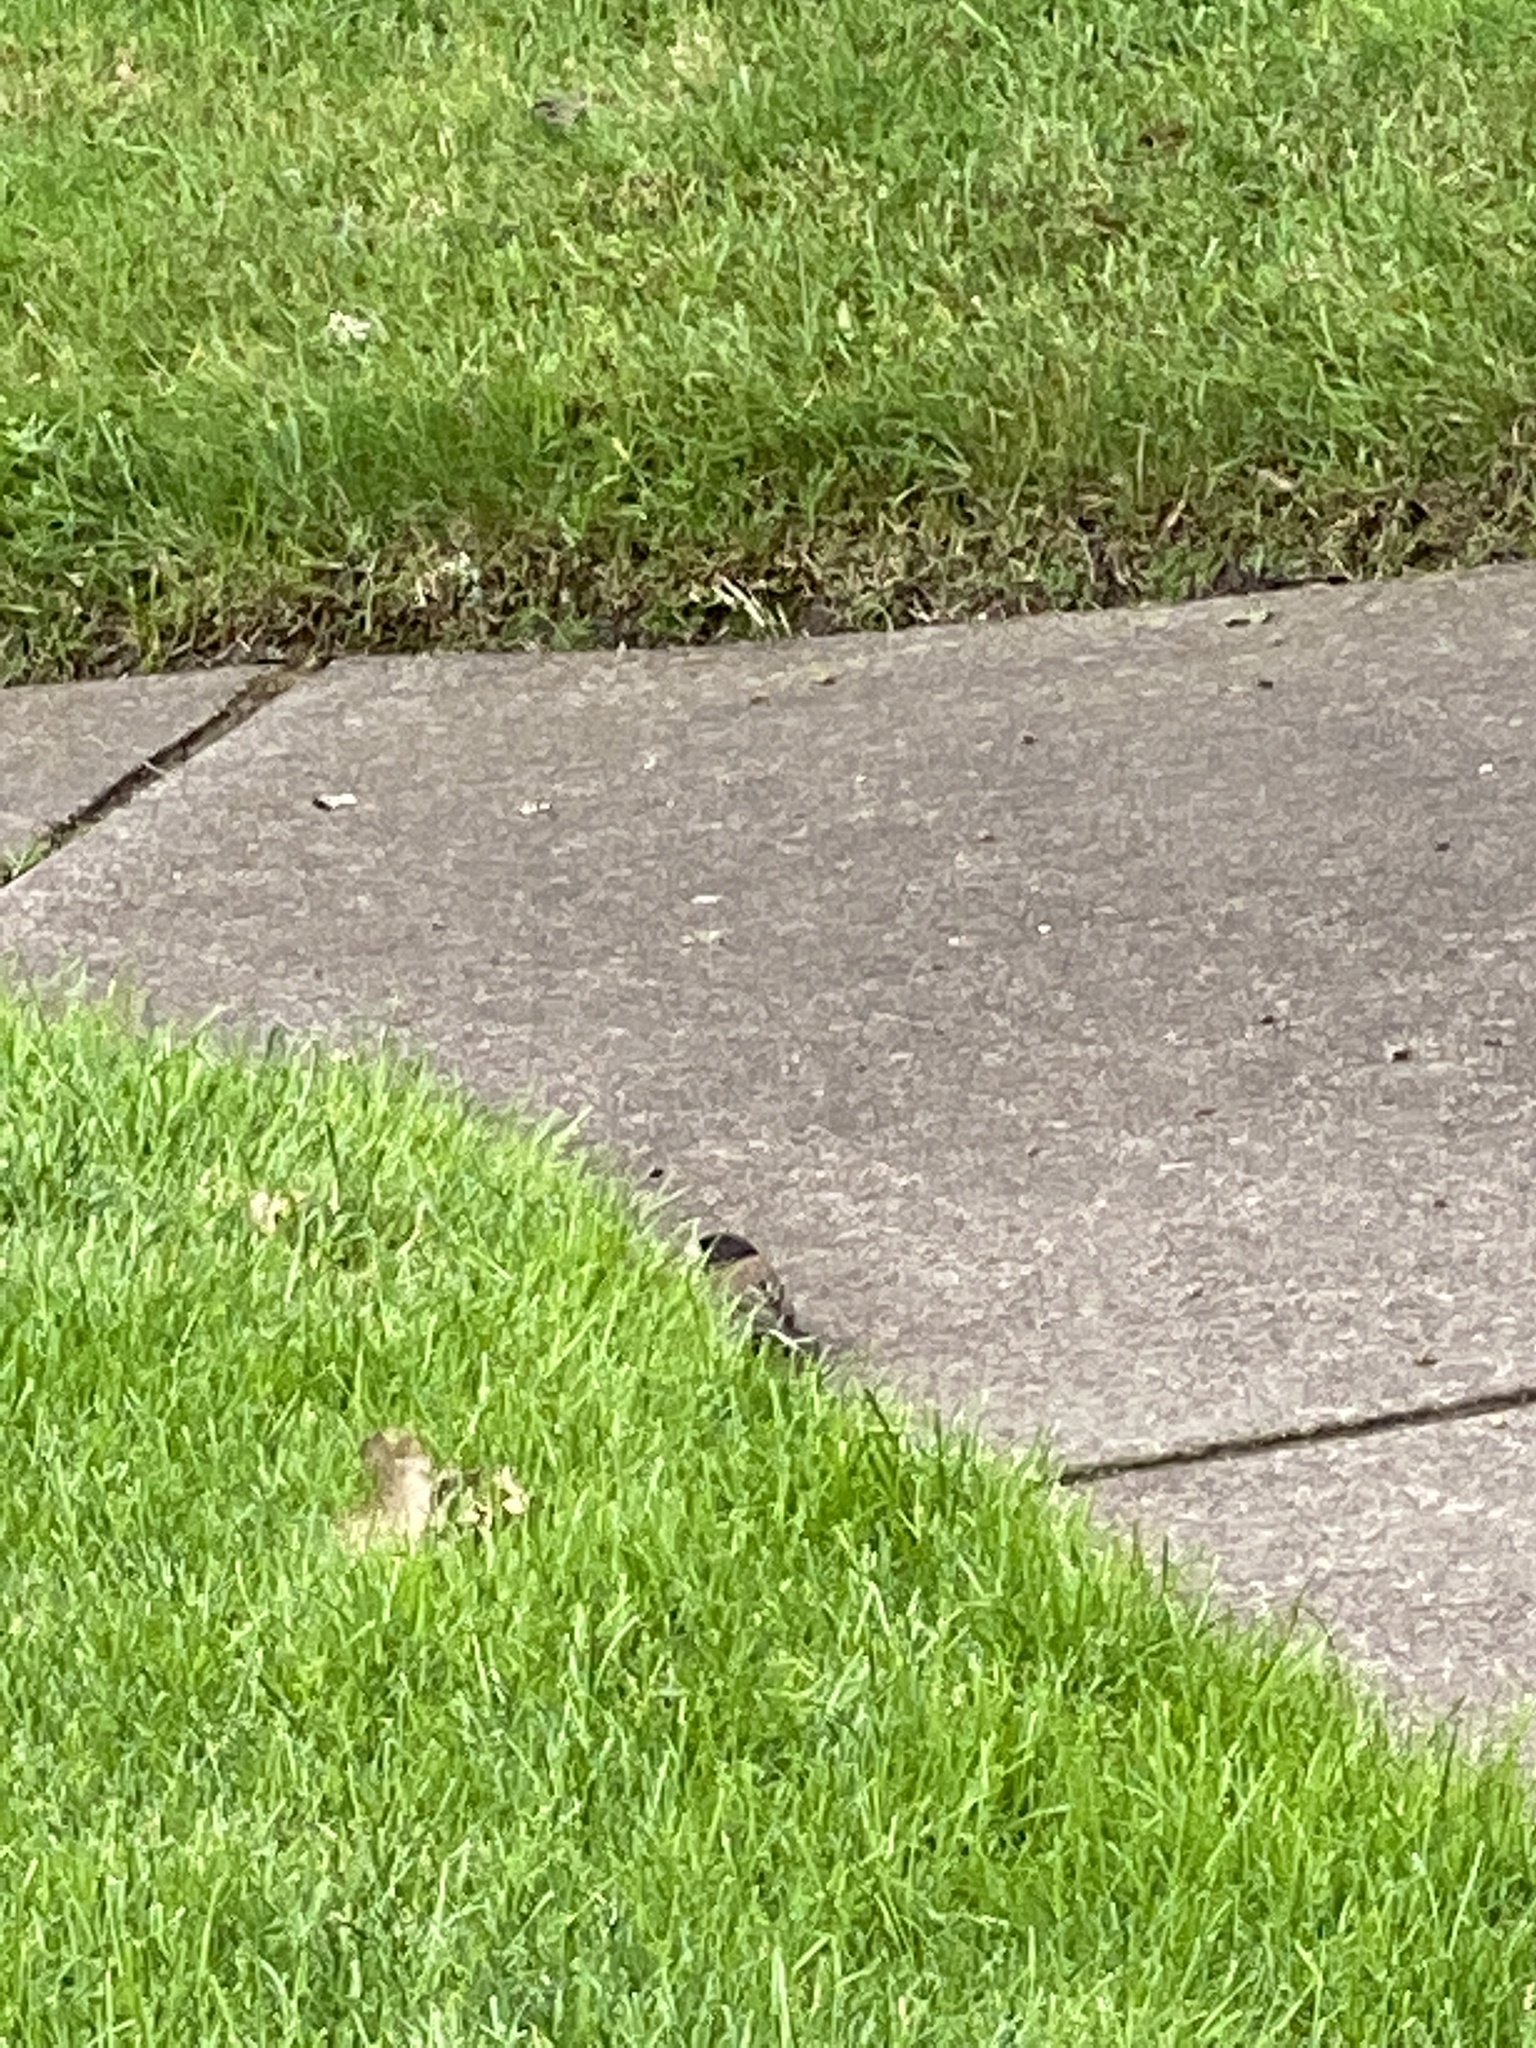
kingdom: Animalia
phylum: Chordata
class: Aves
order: Passeriformes
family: Passerellidae
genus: Junco
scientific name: Junco hyemalis
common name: Dark-eyed junco
